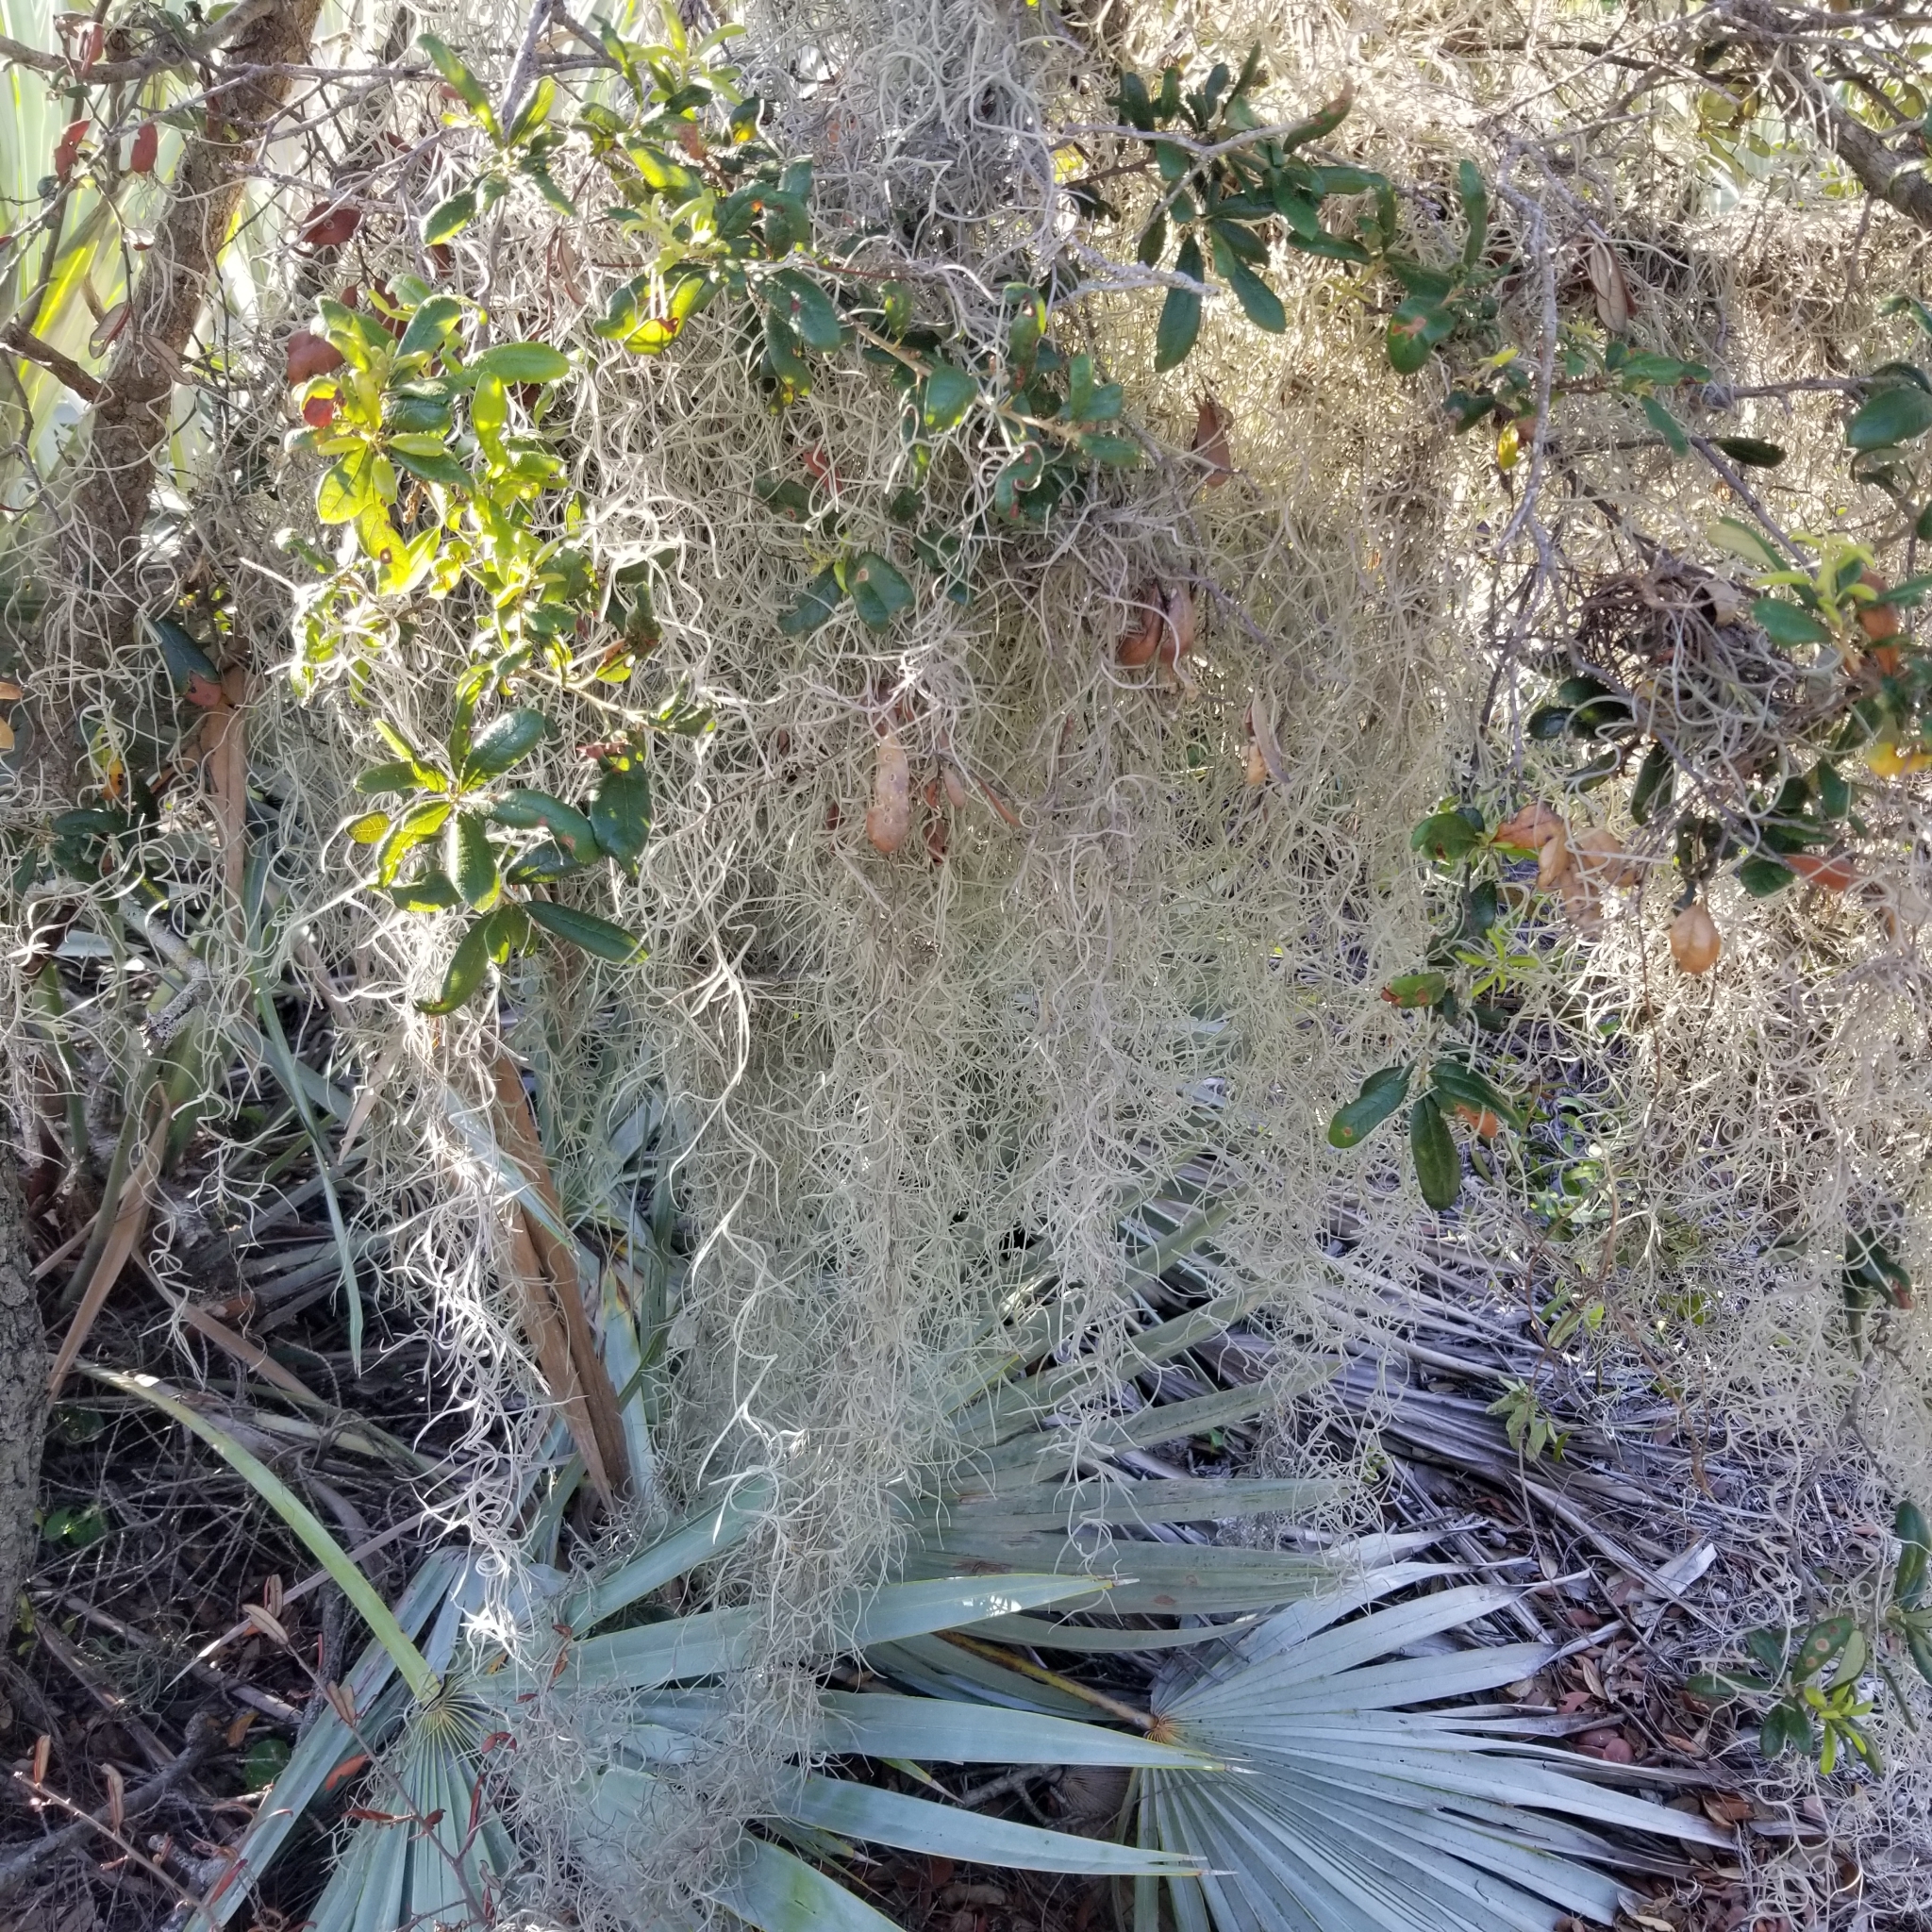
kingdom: Plantae
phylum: Tracheophyta
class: Liliopsida
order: Poales
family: Bromeliaceae
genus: Tillandsia
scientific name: Tillandsia usneoides
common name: Spanish moss
